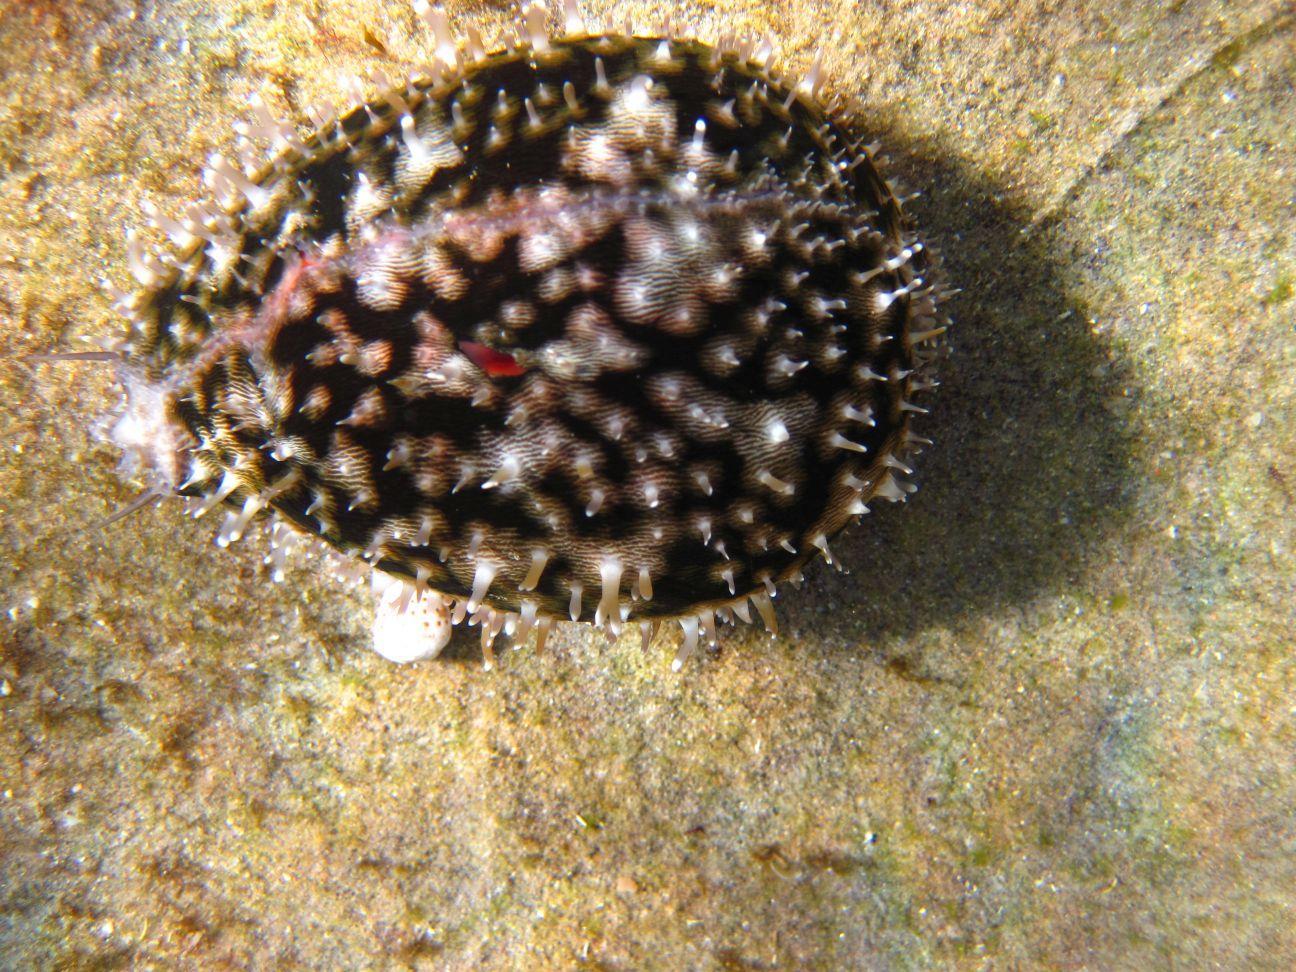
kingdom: Animalia
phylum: Mollusca
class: Gastropoda
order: Littorinimorpha
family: Cypraeidae
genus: Cypraea
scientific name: Cypraea tigris
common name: Tiger cowrie
